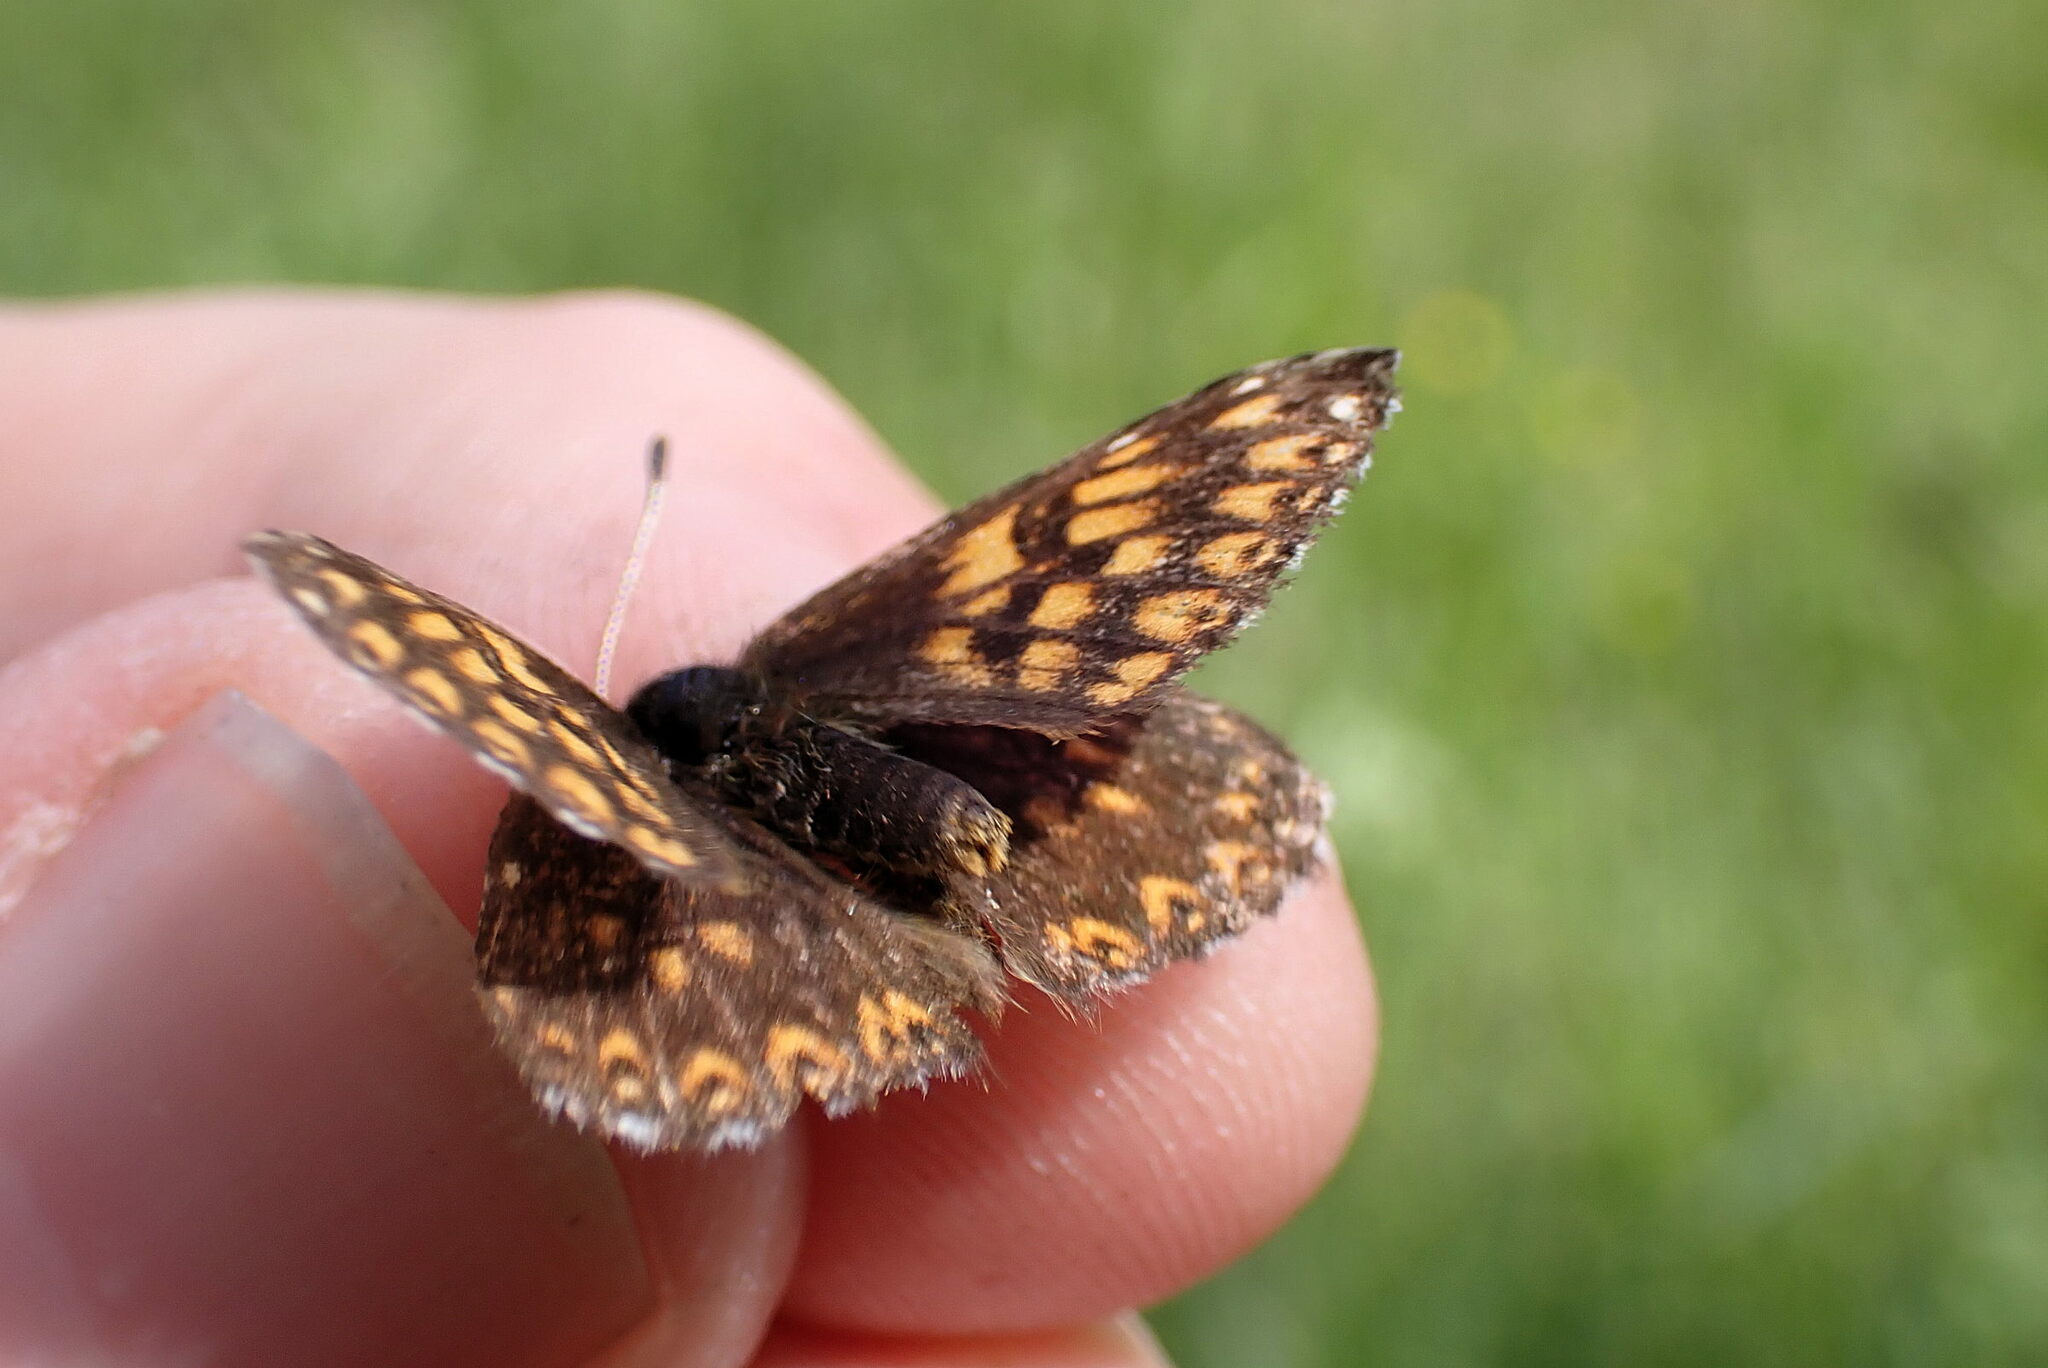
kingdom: Animalia
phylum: Arthropoda
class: Insecta
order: Lepidoptera
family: Riodinidae
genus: Hamearis
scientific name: Hamearis lucina
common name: Duke of burgundy fritillary
